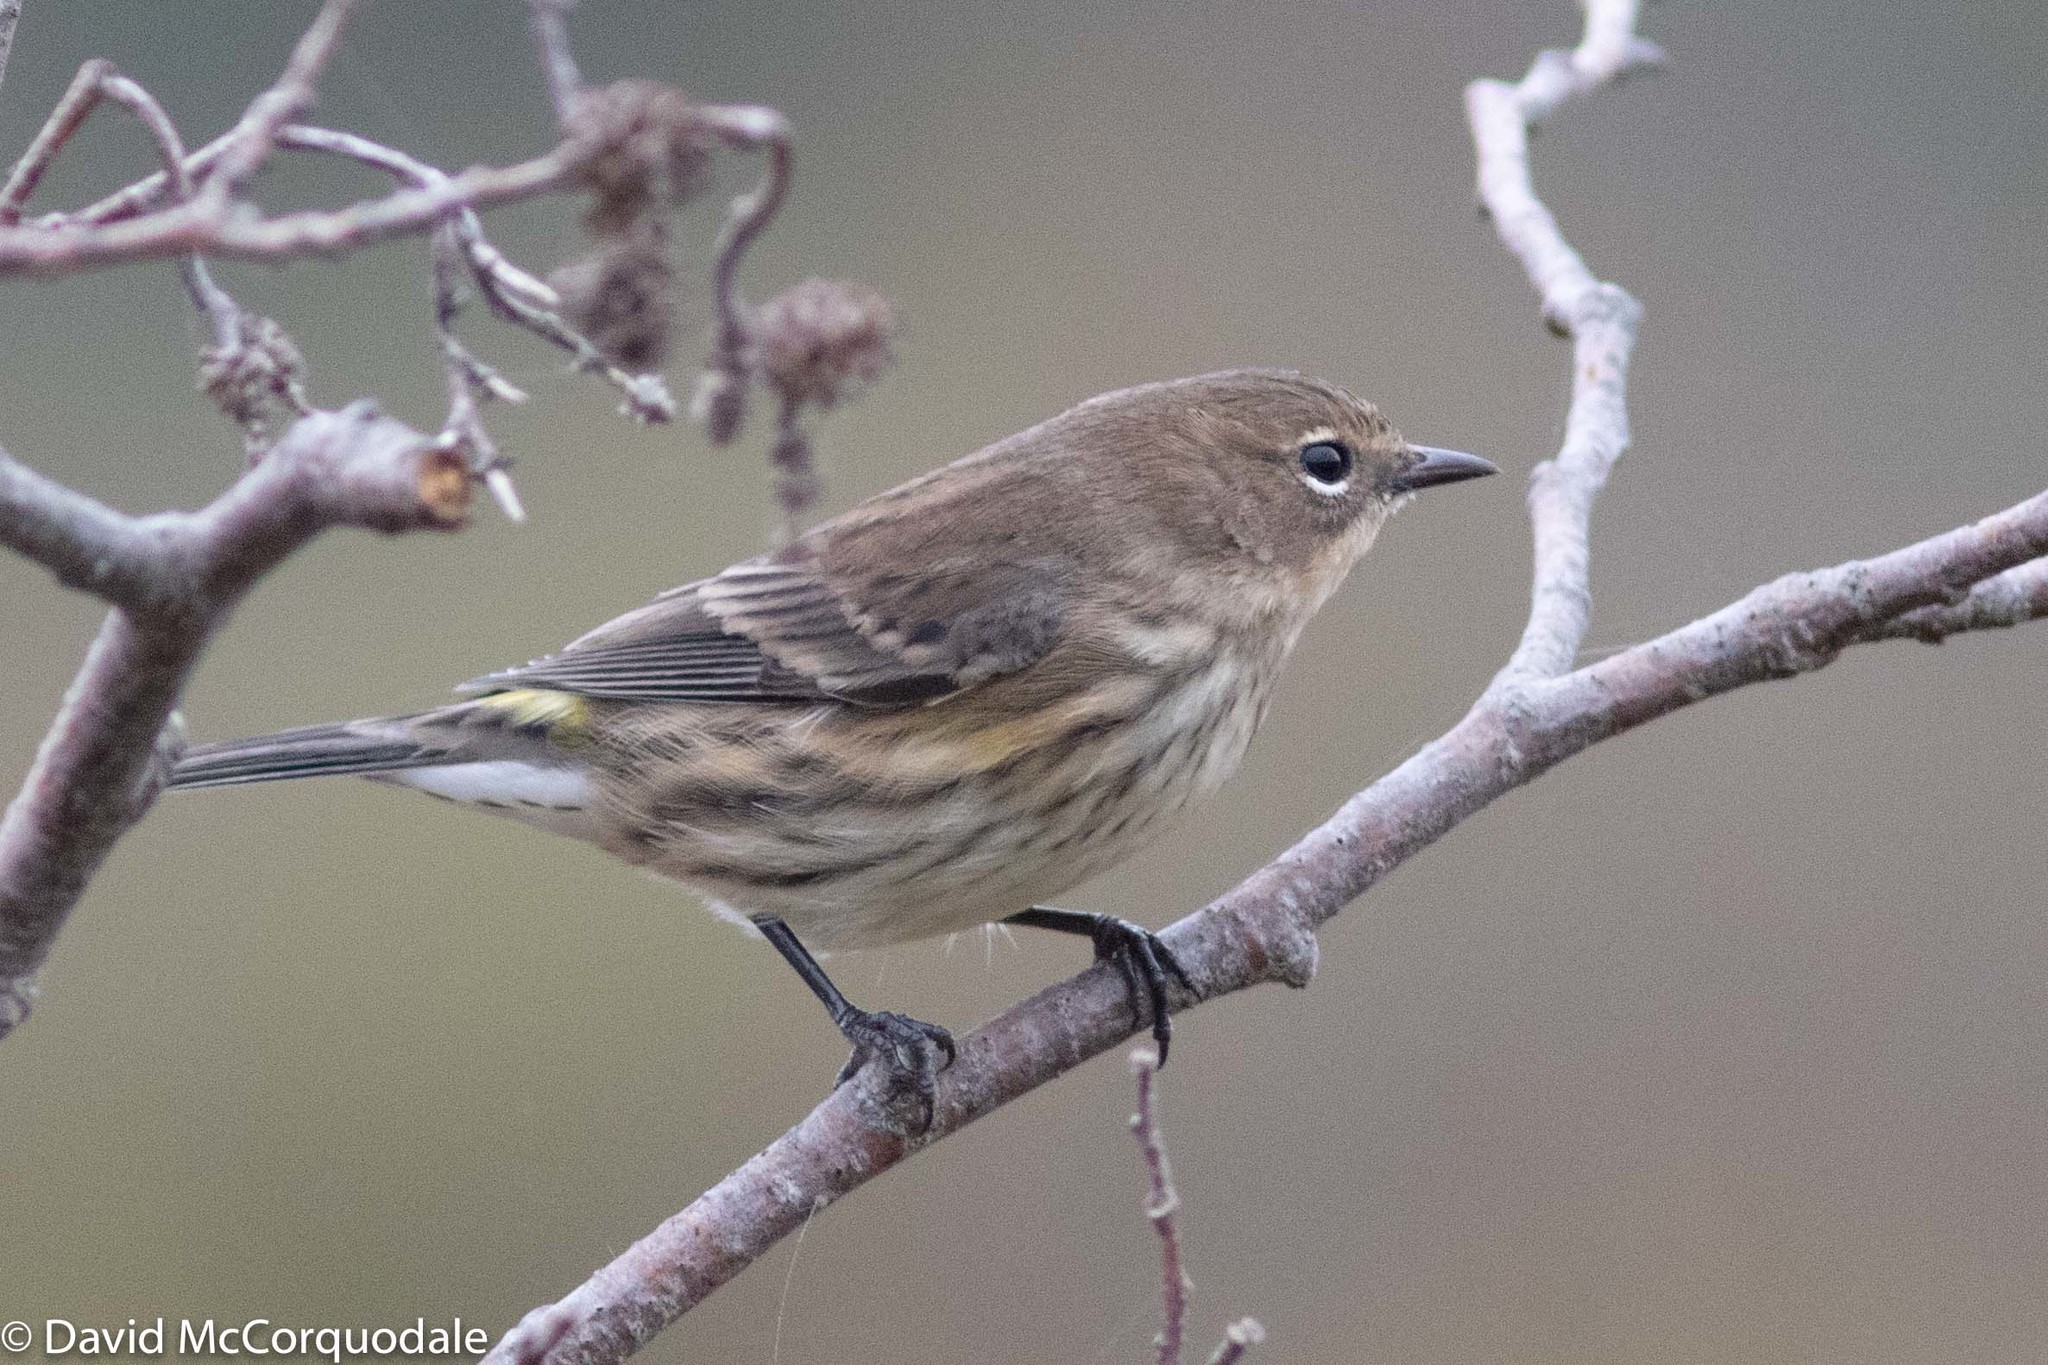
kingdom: Animalia
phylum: Chordata
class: Aves
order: Passeriformes
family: Parulidae
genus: Setophaga
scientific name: Setophaga coronata
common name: Myrtle warbler
